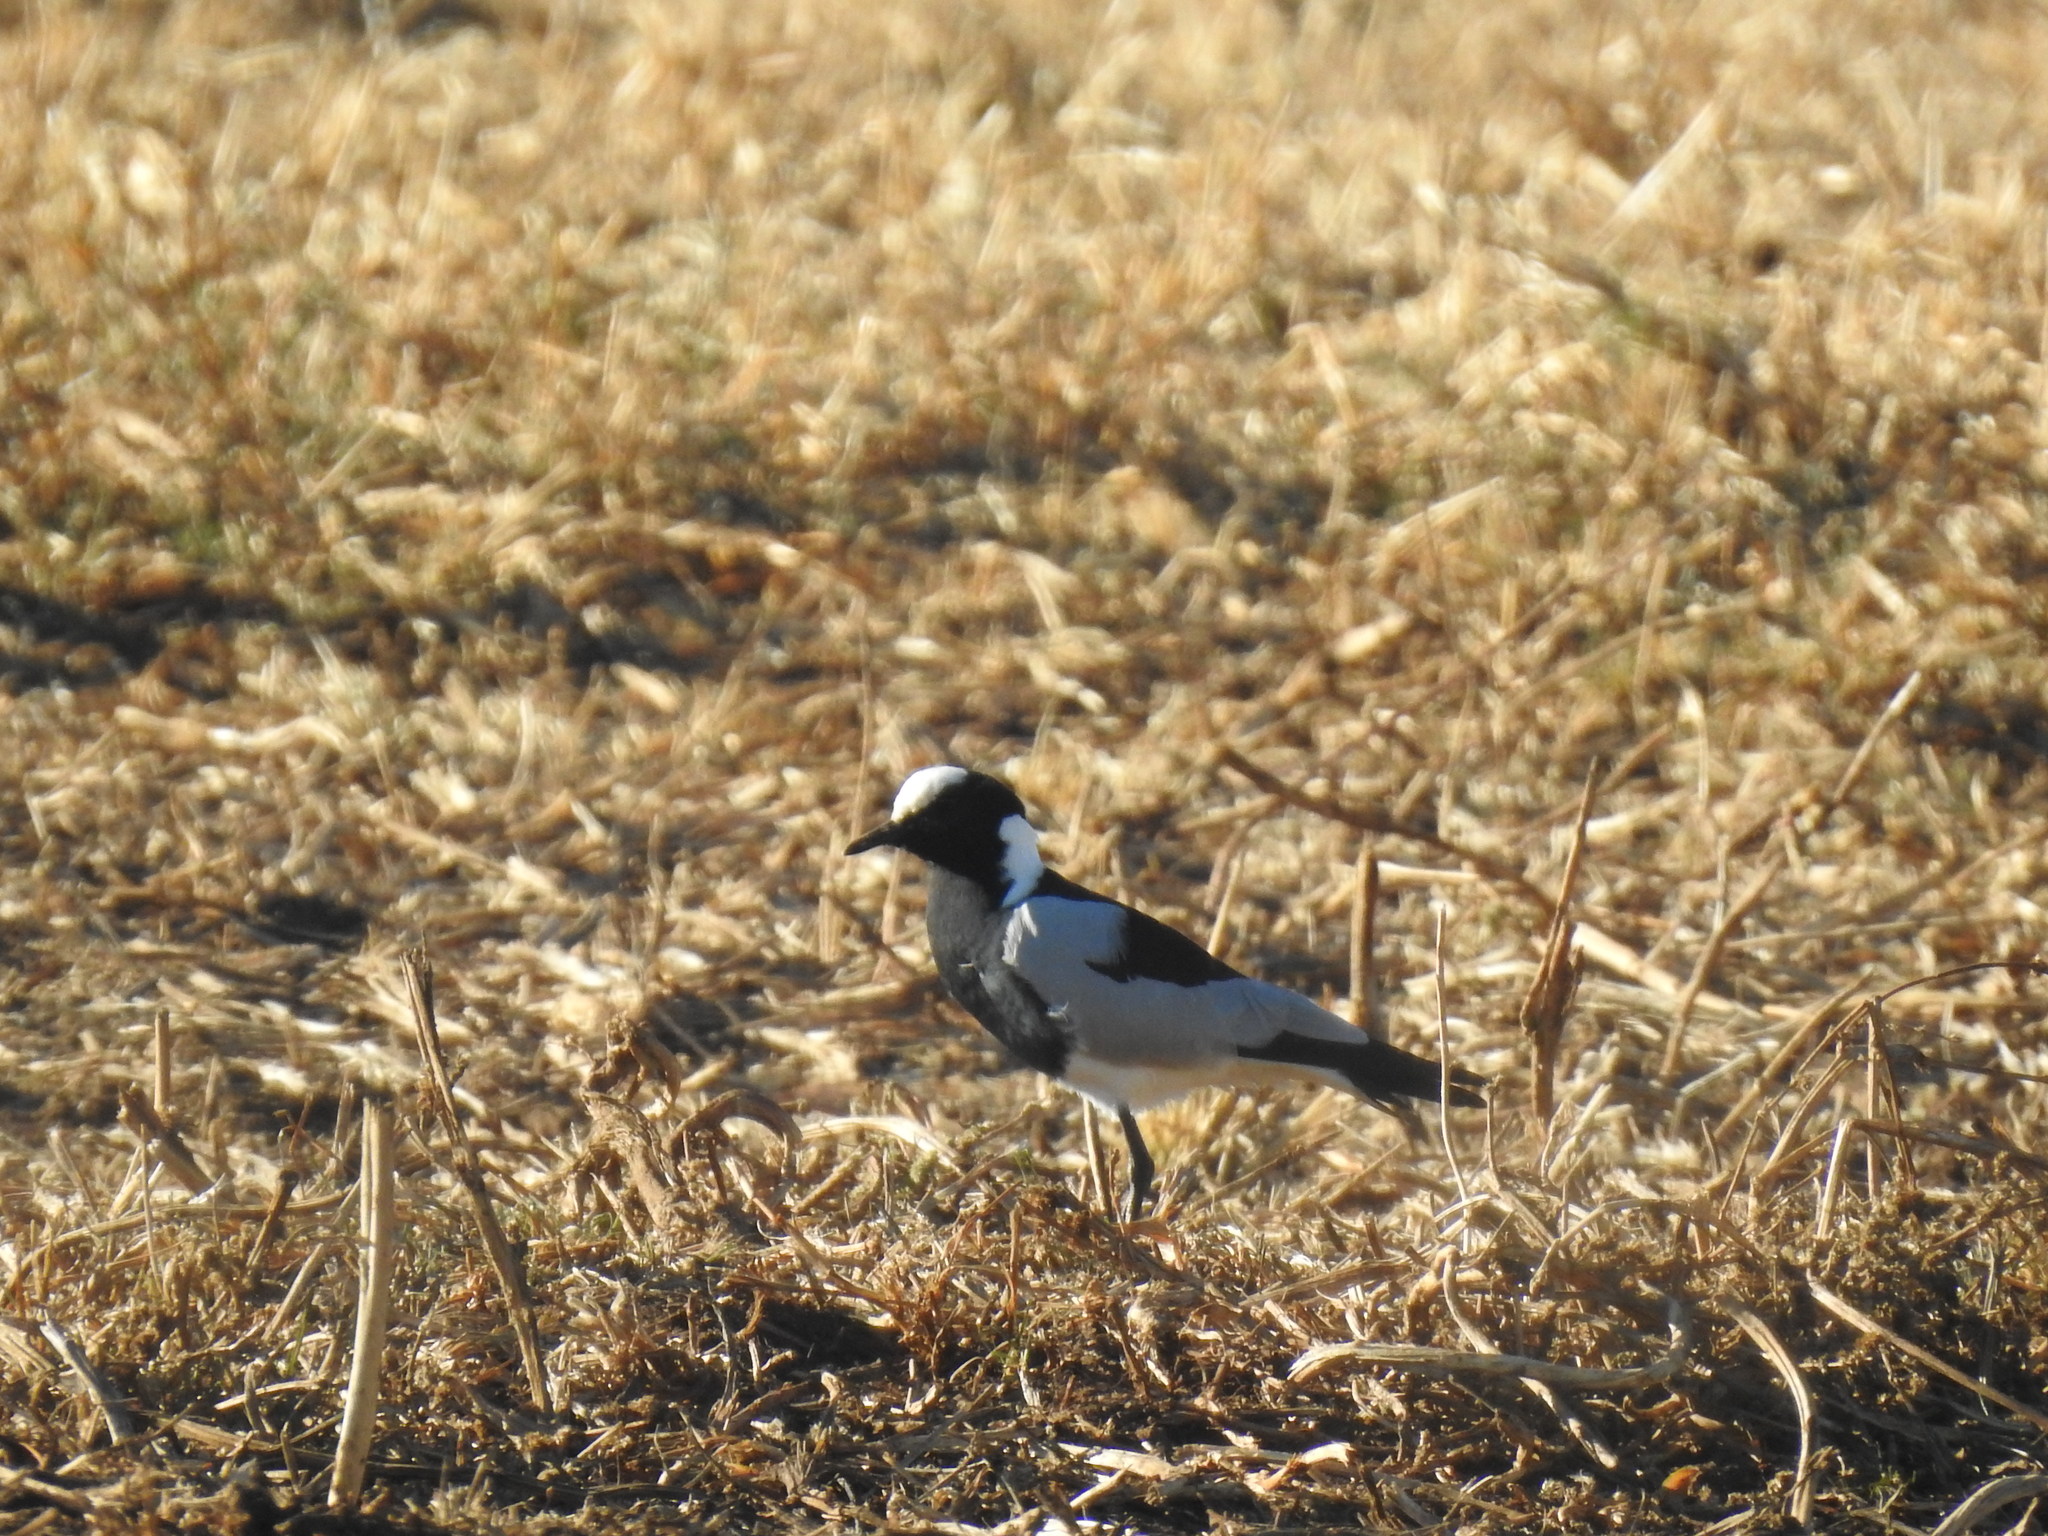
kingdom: Animalia
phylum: Chordata
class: Aves
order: Charadriiformes
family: Charadriidae
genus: Vanellus
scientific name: Vanellus armatus
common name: Blacksmith lapwing
